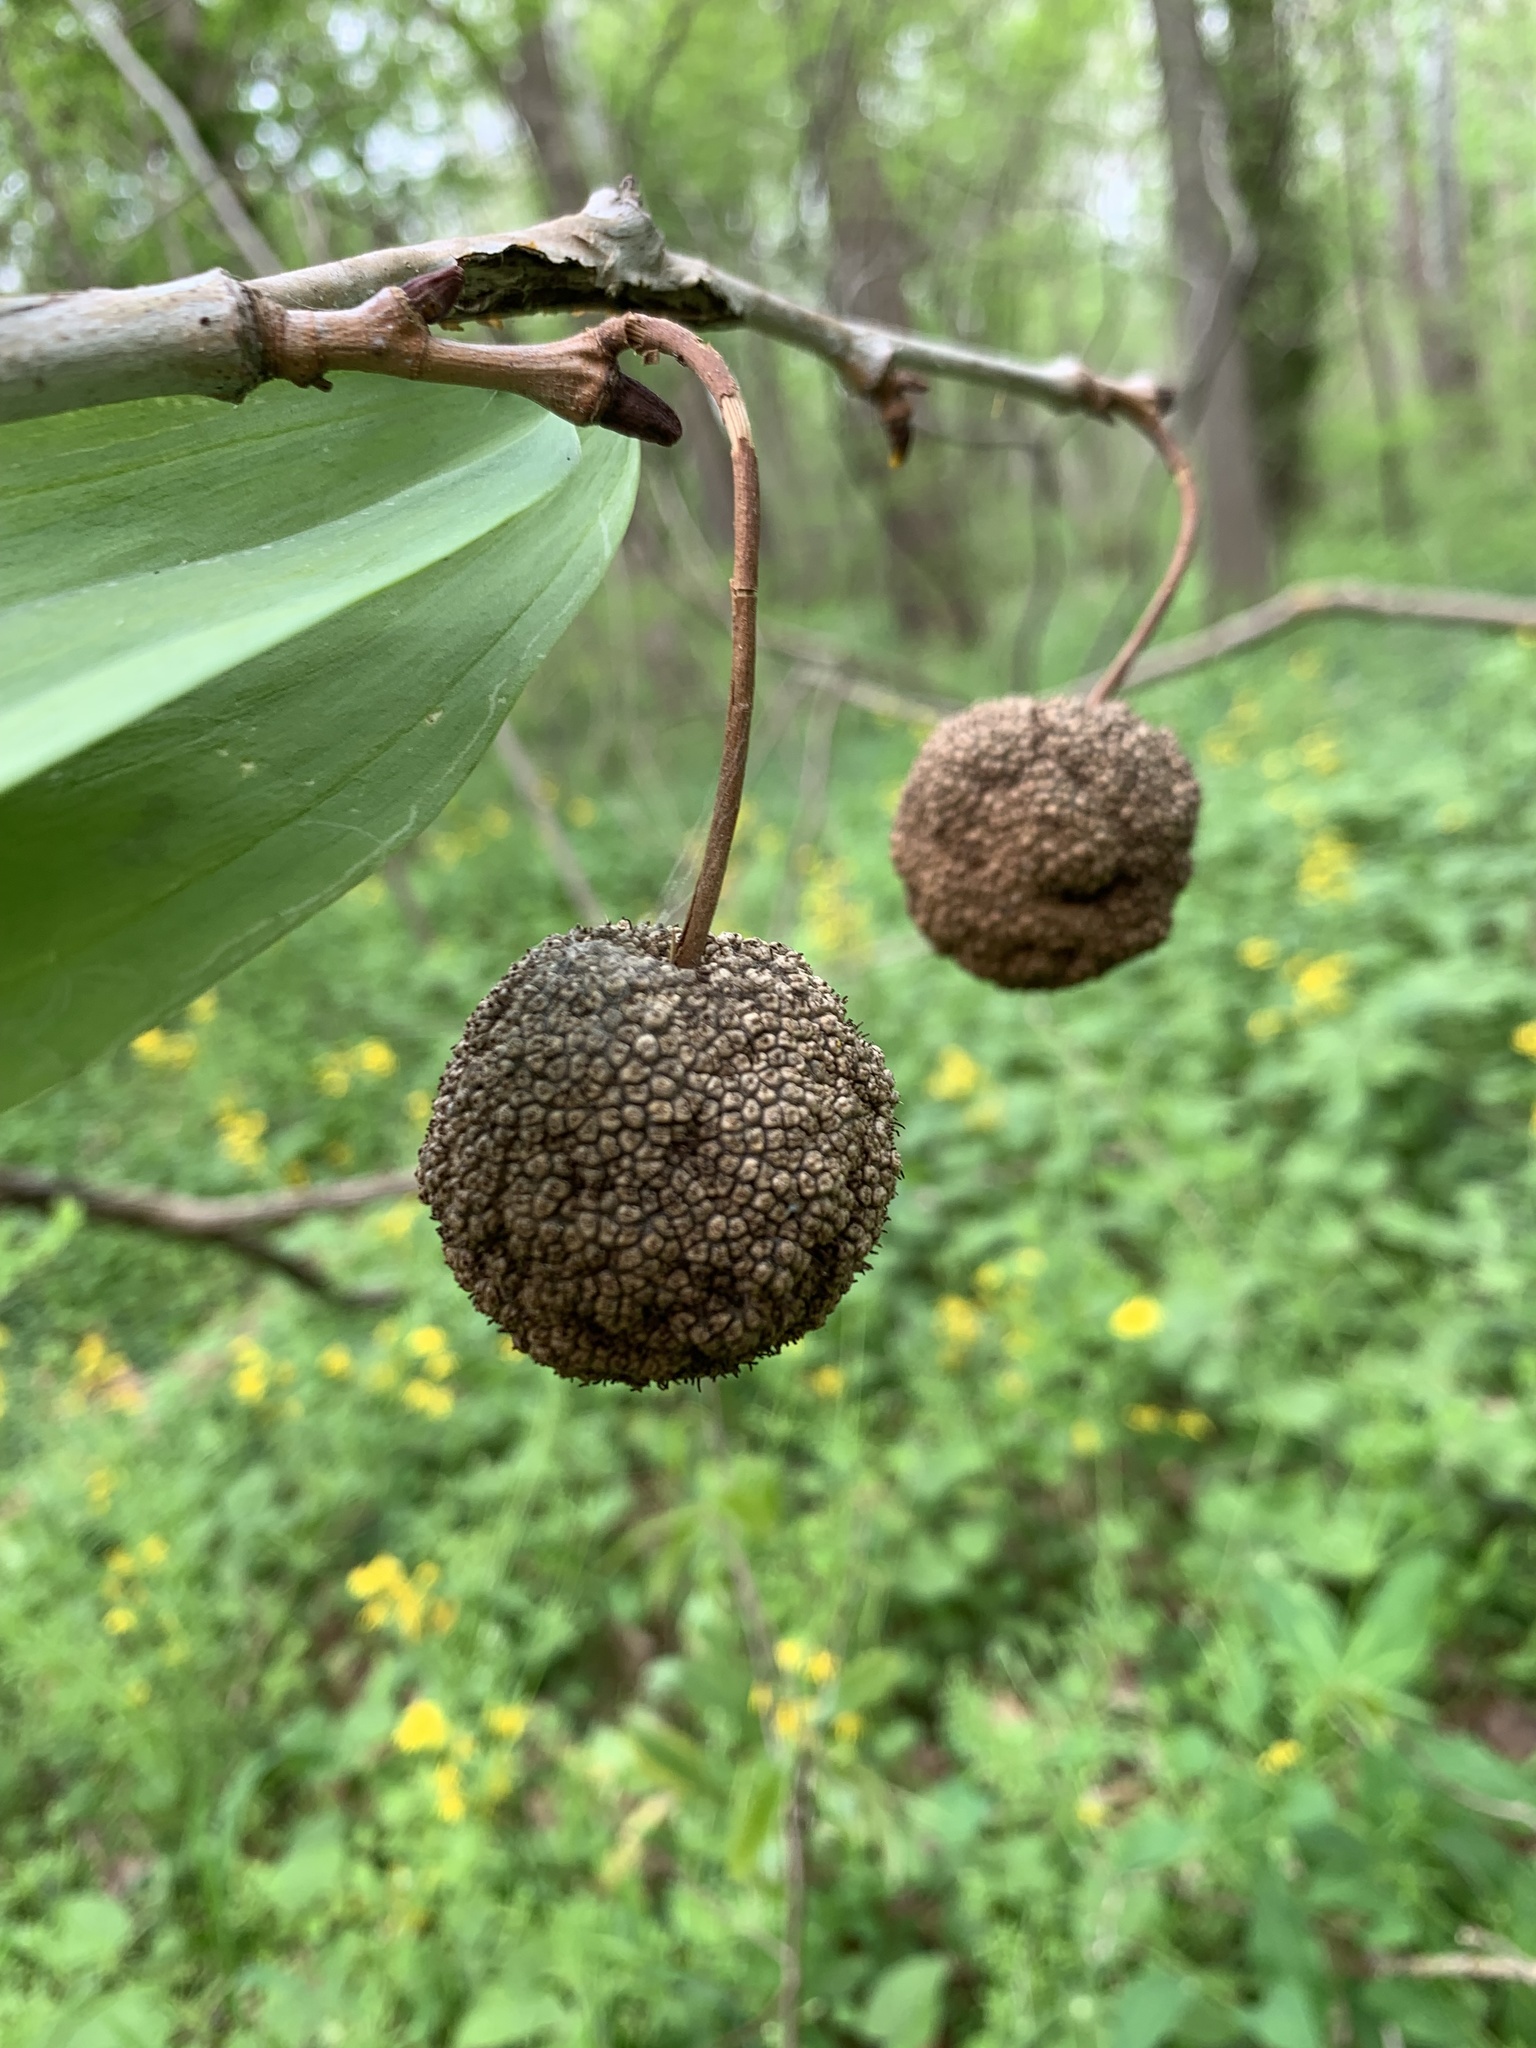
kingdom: Plantae
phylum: Tracheophyta
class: Magnoliopsida
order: Proteales
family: Platanaceae
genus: Platanus
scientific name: Platanus occidentalis
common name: American sycamore
